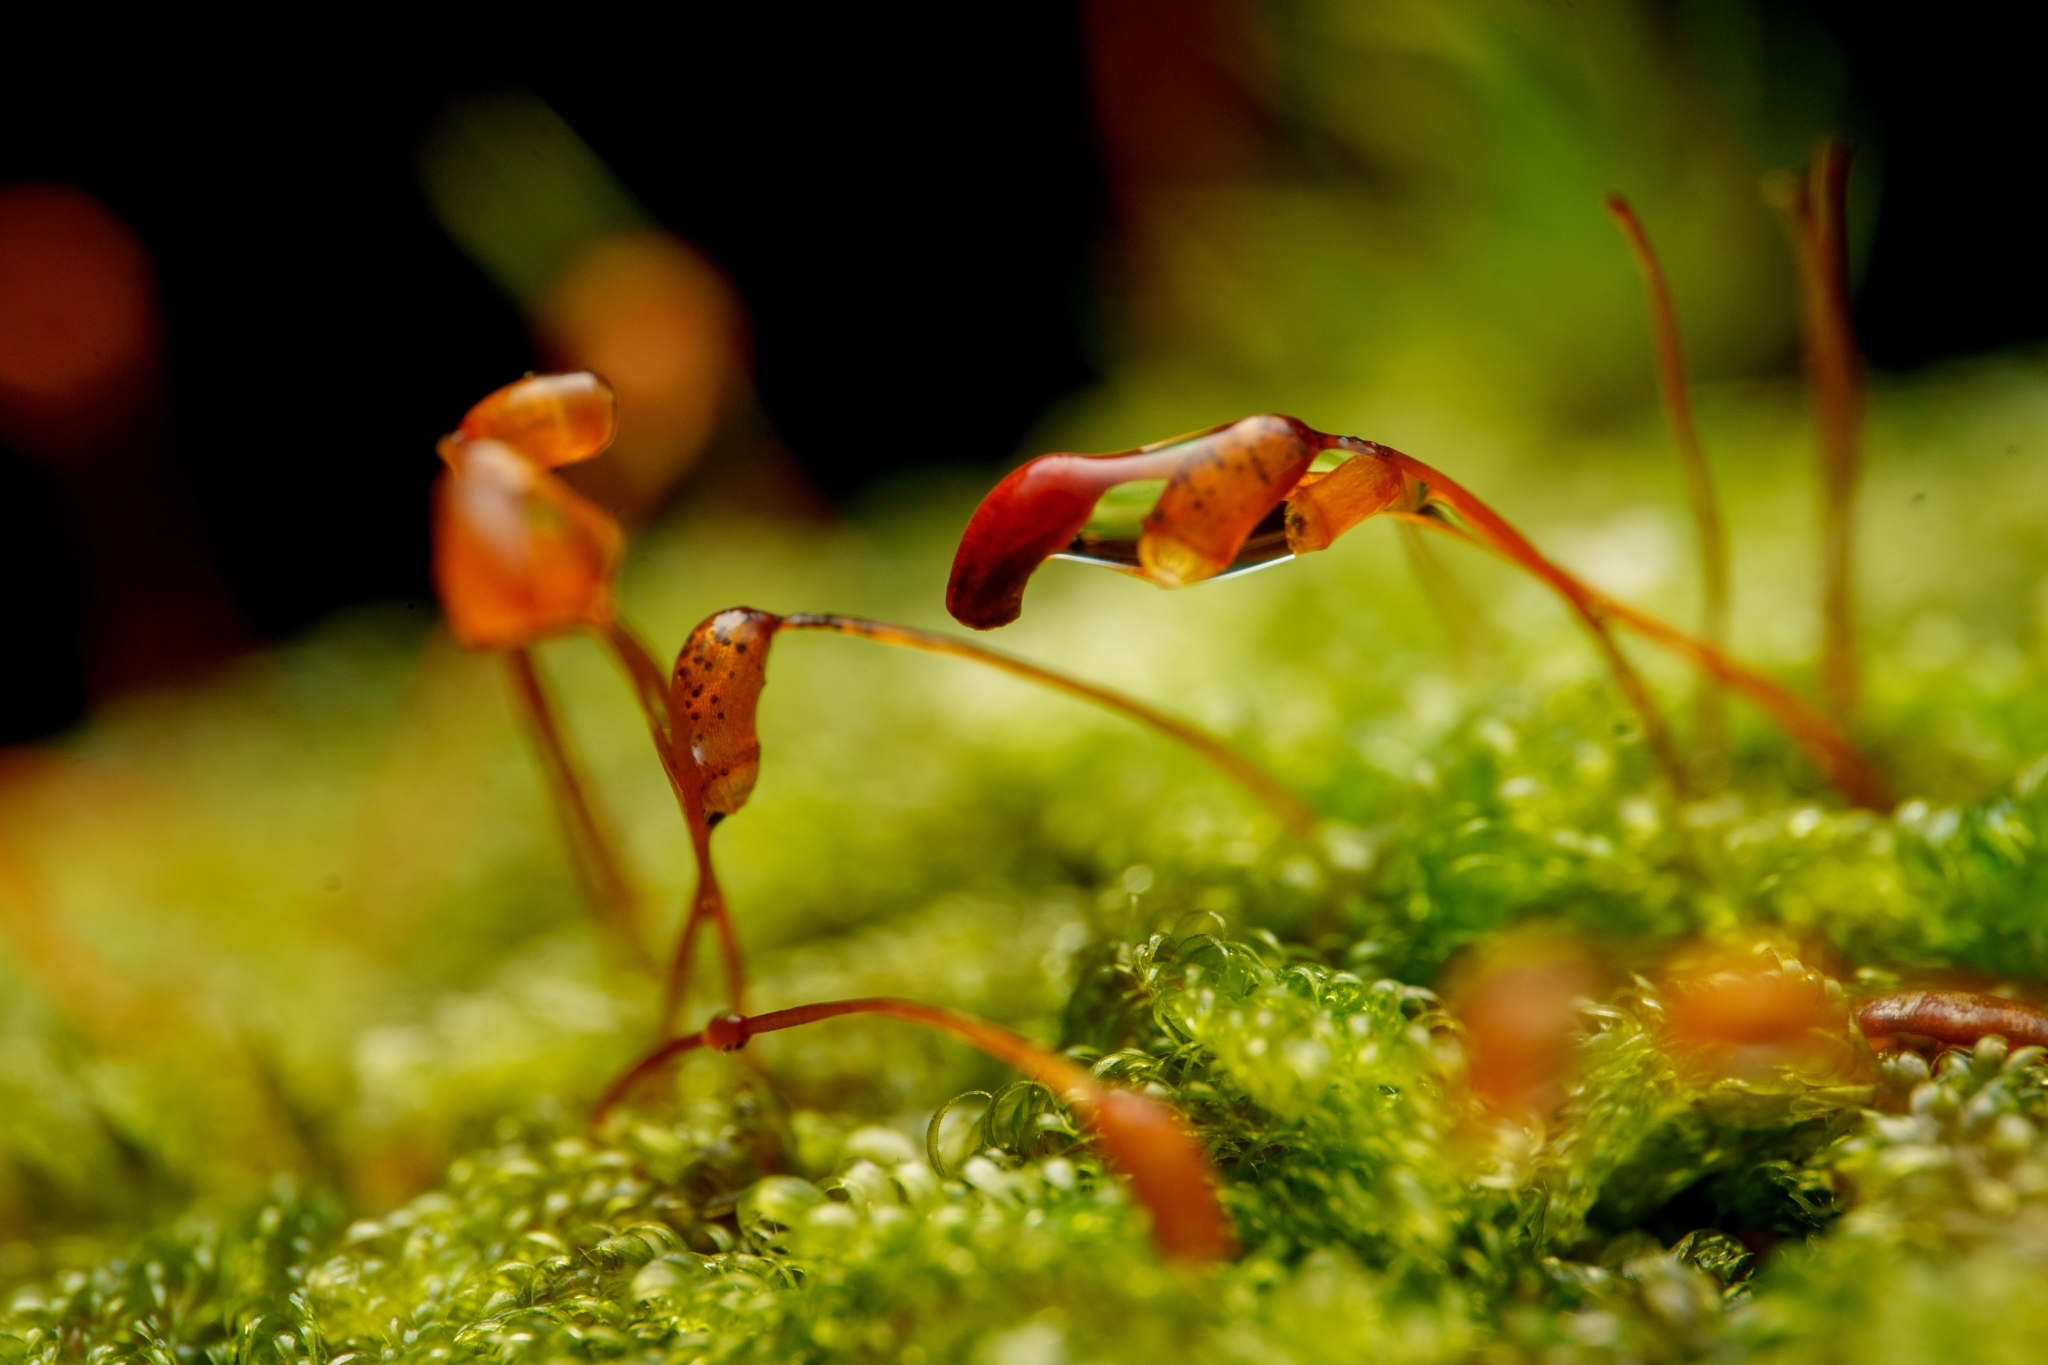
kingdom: Plantae
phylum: Bryophyta
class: Bryopsida
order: Hypnales
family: Pylaisiadelphaceae
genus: Trochophyllohypnum
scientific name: Trochophyllohypnum circinale
